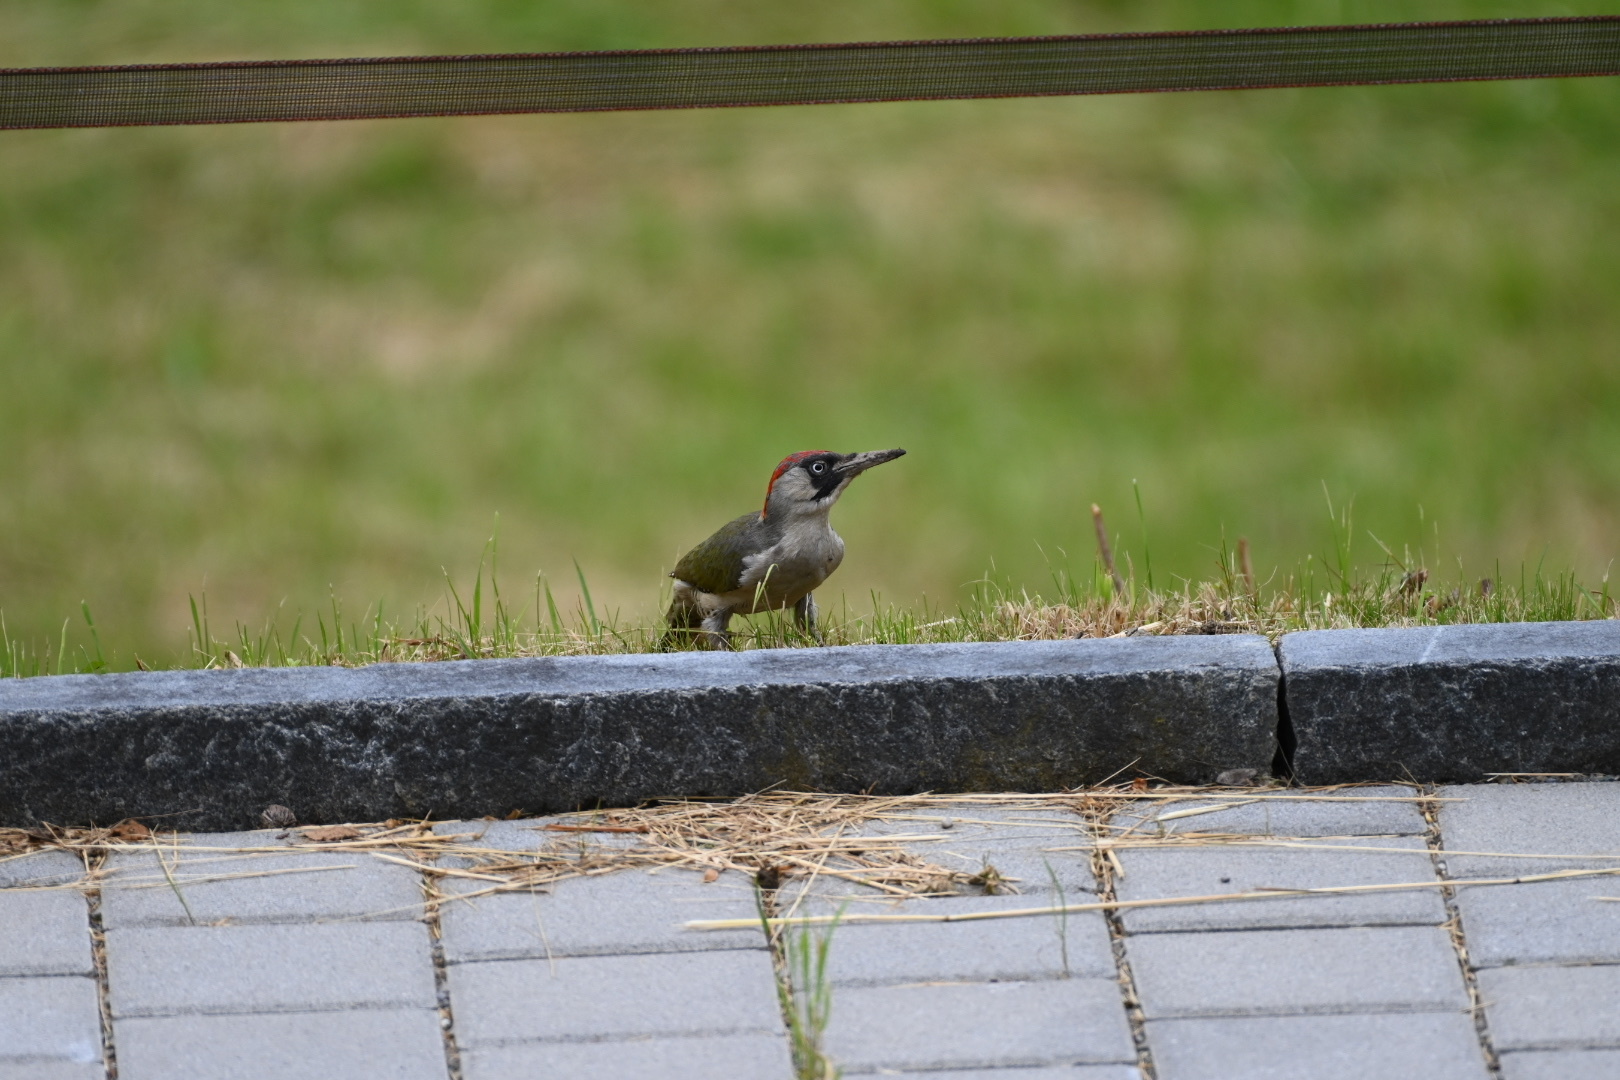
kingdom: Animalia
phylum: Chordata
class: Aves
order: Piciformes
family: Picidae
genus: Picus
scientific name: Picus viridis
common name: European green woodpecker
